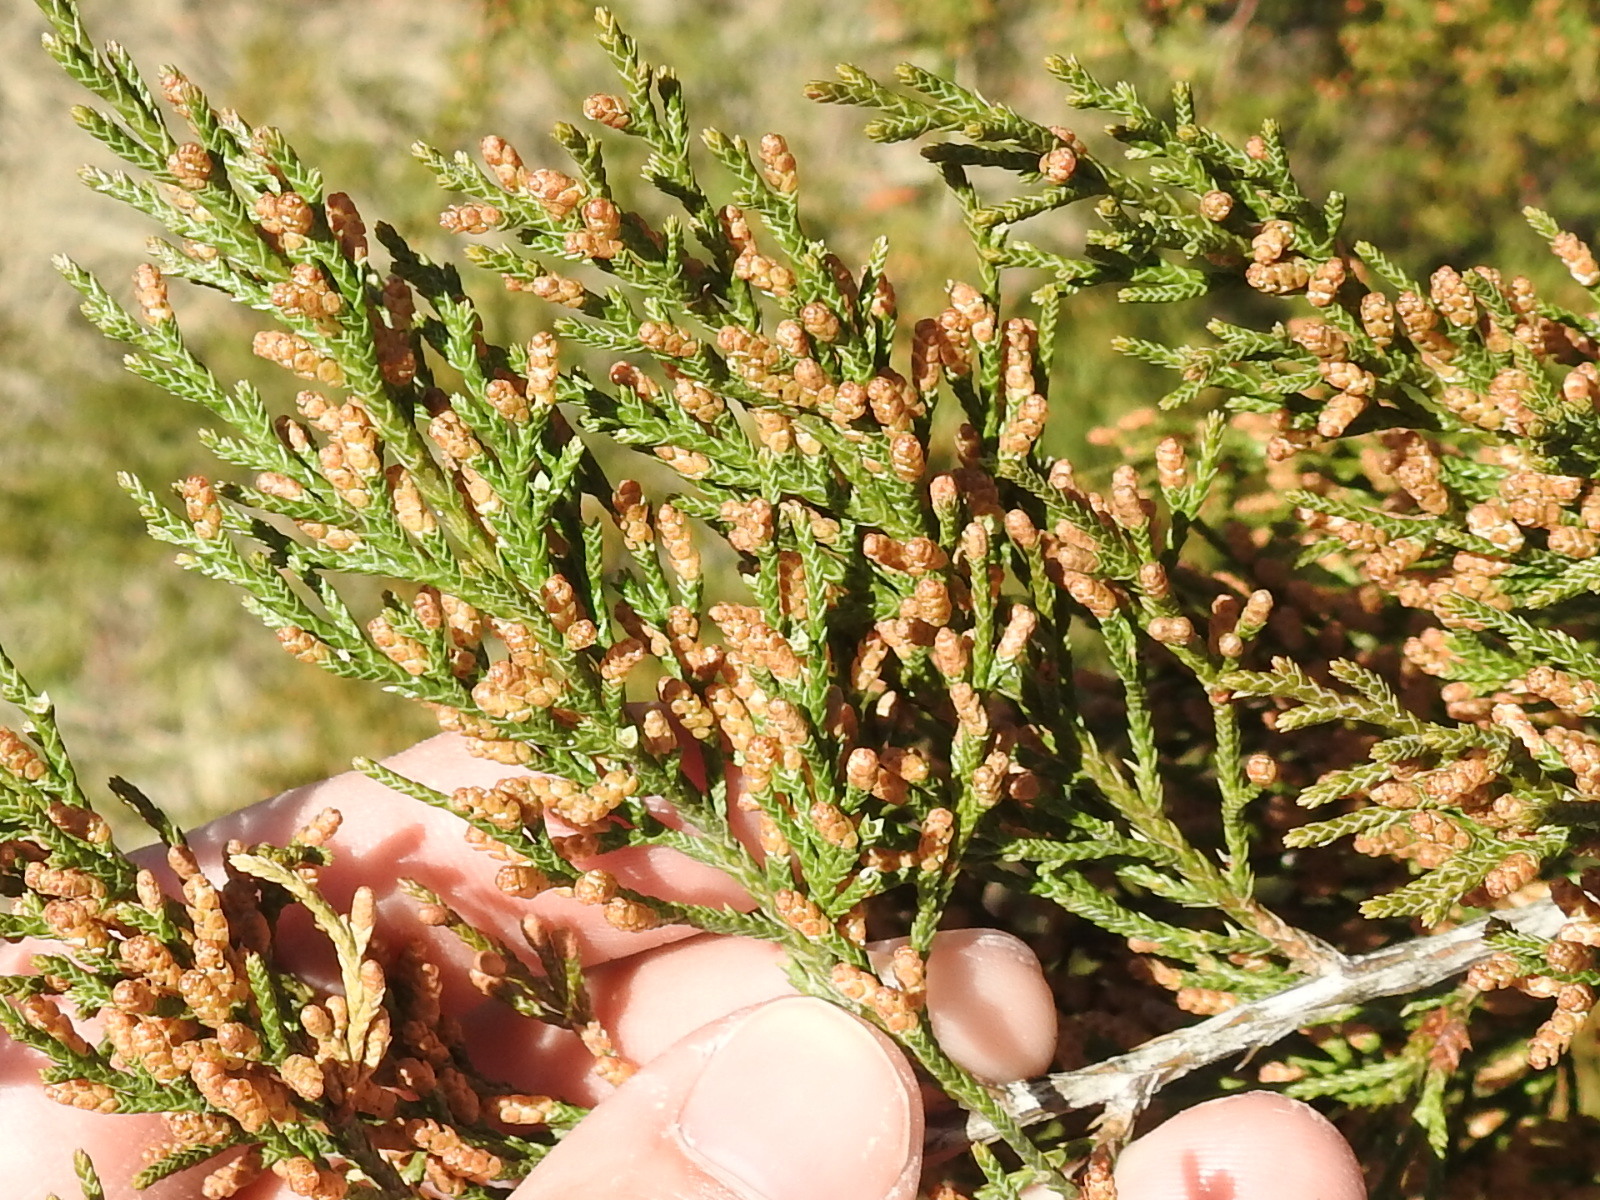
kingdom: Plantae
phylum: Tracheophyta
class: Pinopsida
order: Pinales
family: Cupressaceae
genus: Juniperus
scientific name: Juniperus virginiana
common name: Red juniper
